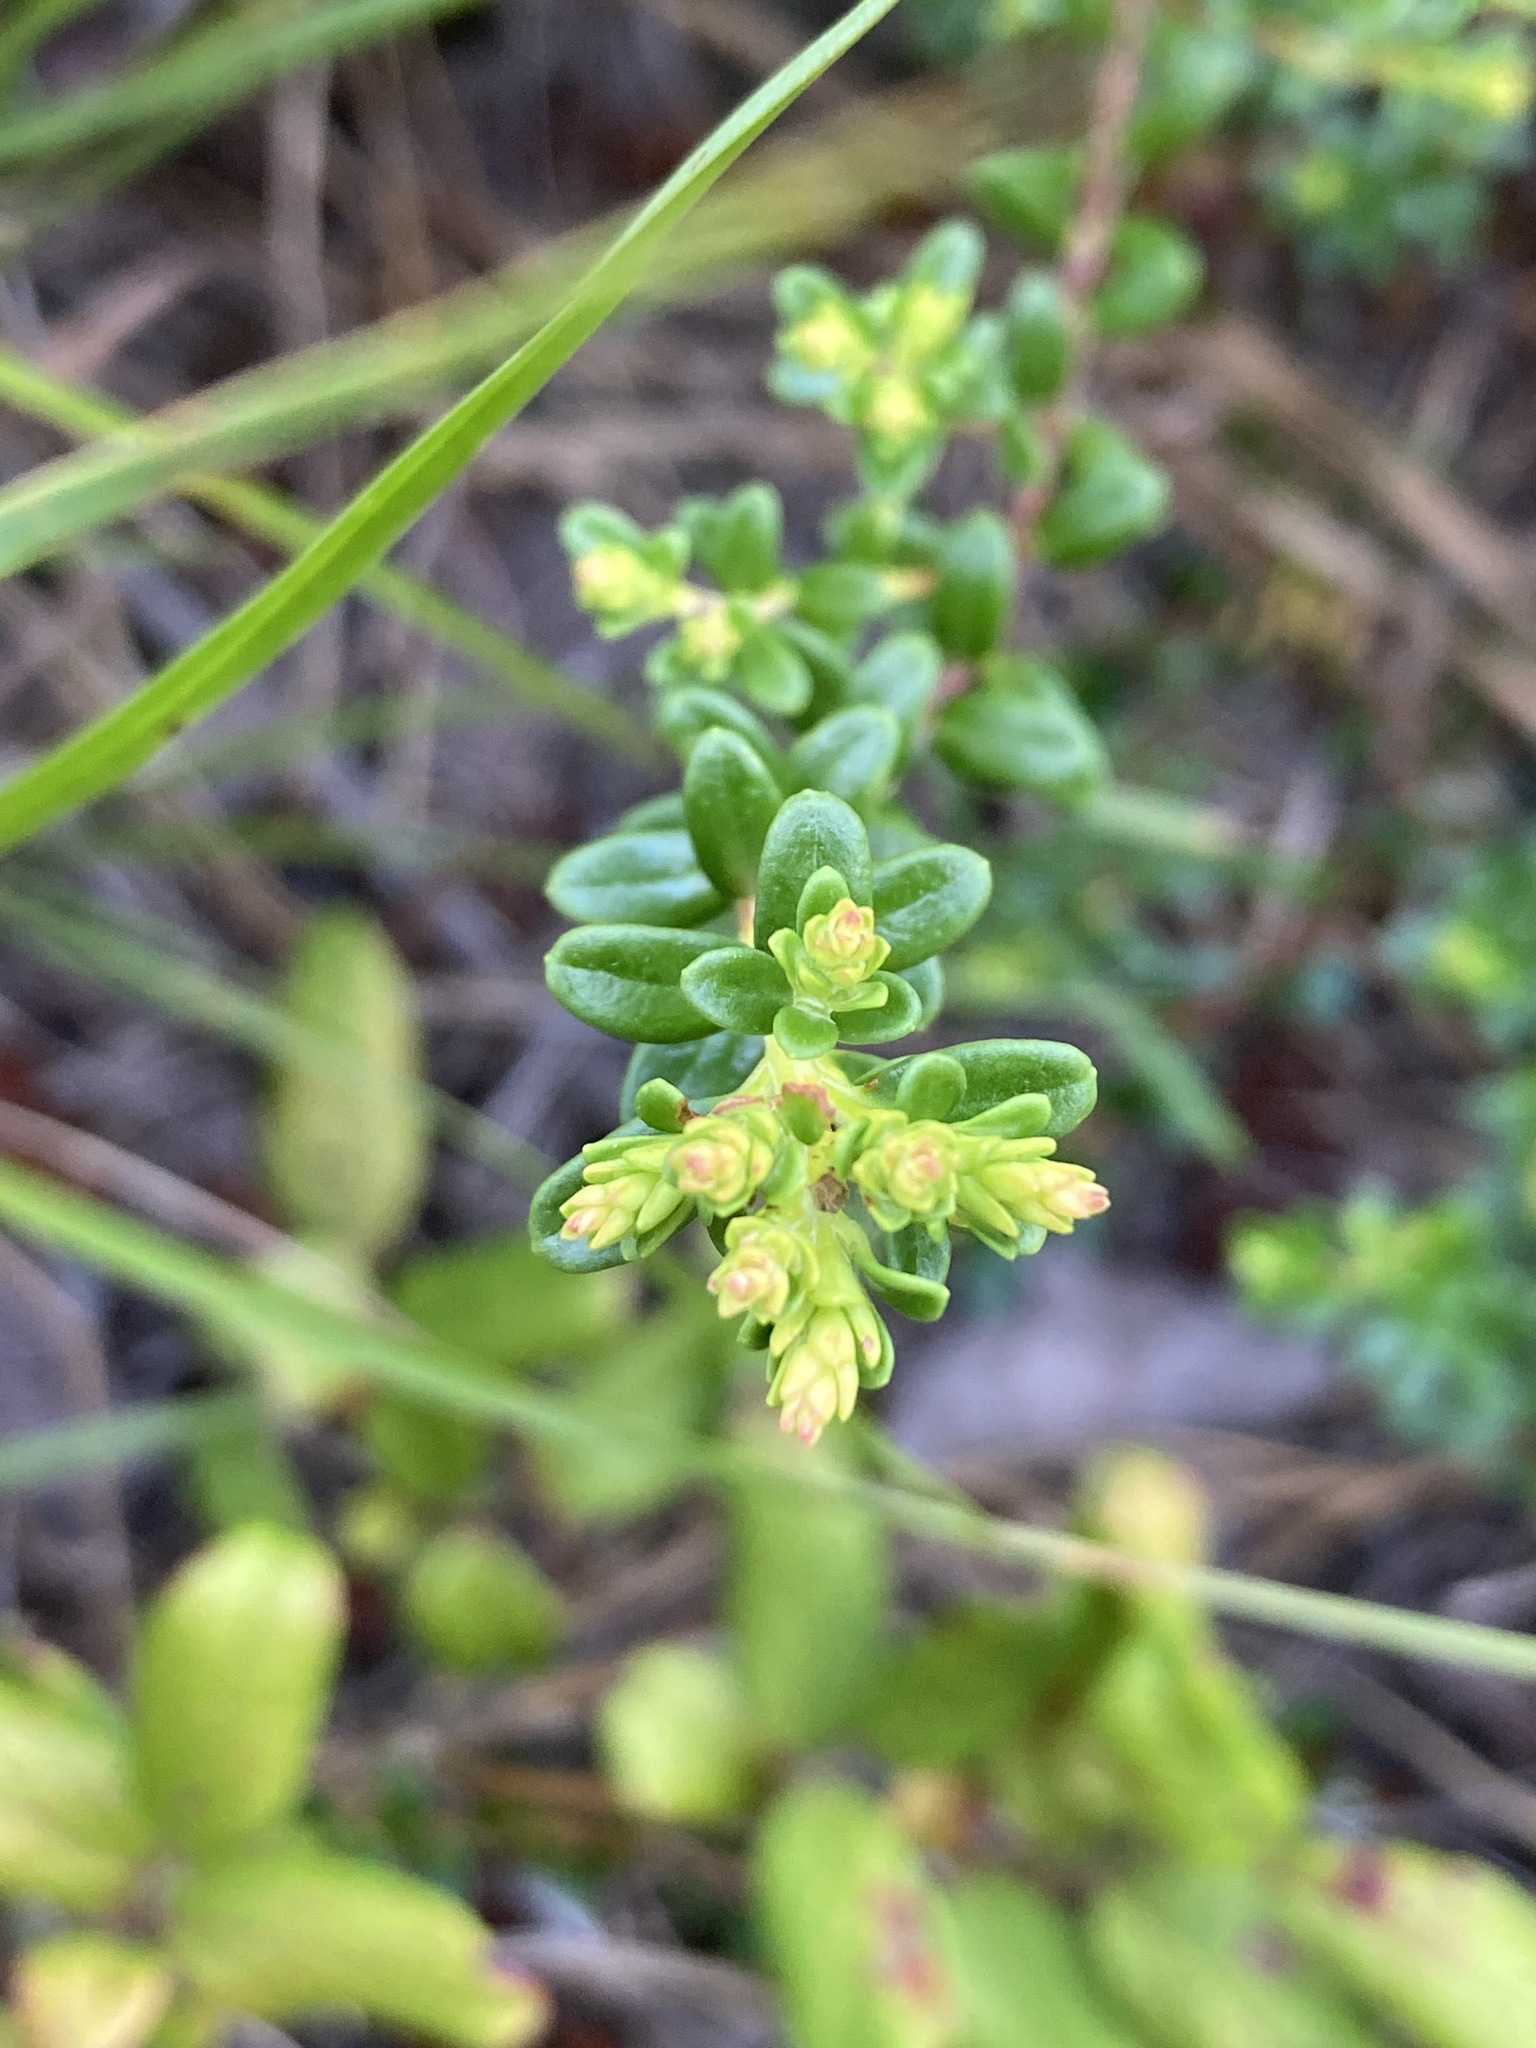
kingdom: Plantae
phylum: Tracheophyta
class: Magnoliopsida
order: Ericales
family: Ericaceae
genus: Kalmia
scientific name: Kalmia buxifolia
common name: Sandmyrtle
